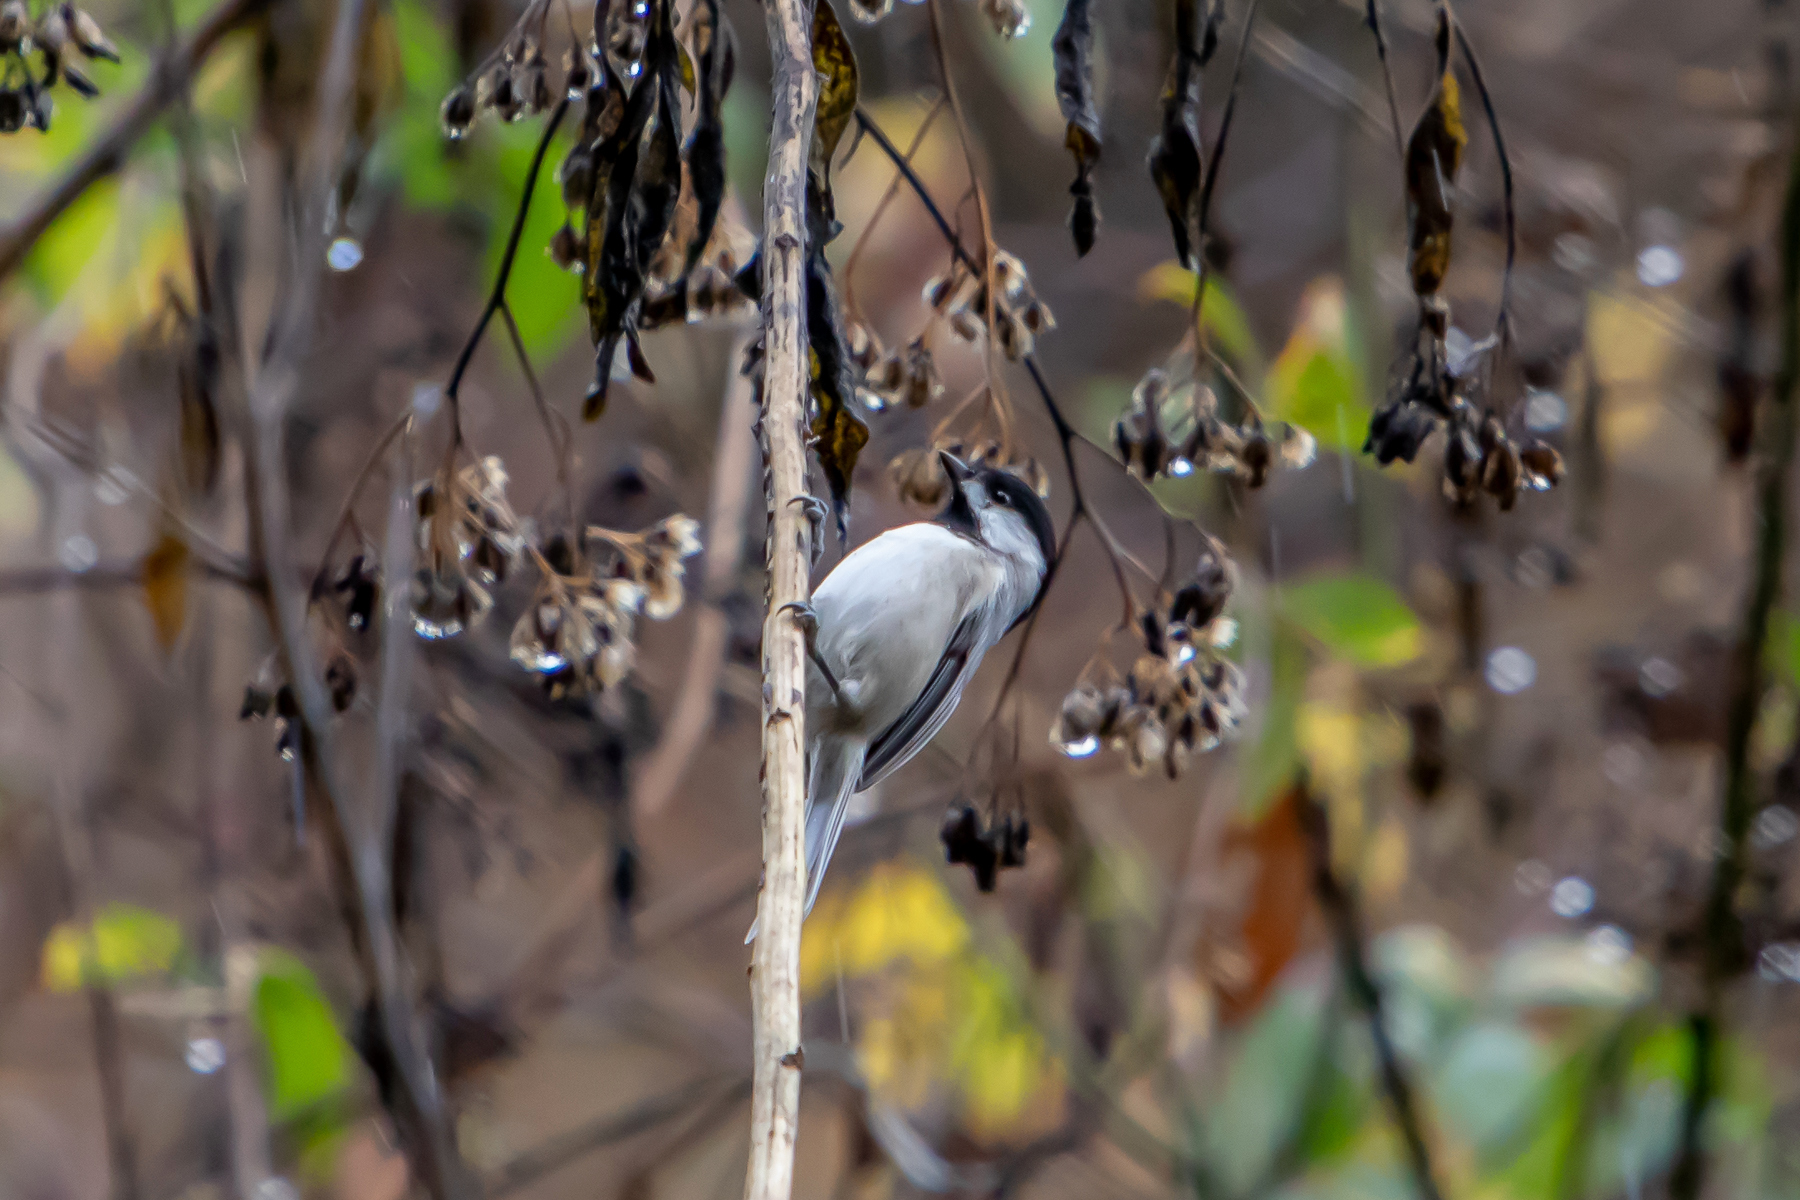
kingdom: Animalia
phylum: Chordata
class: Aves
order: Passeriformes
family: Paridae
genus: Poecile
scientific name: Poecile carolinensis
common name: Carolina chickadee
